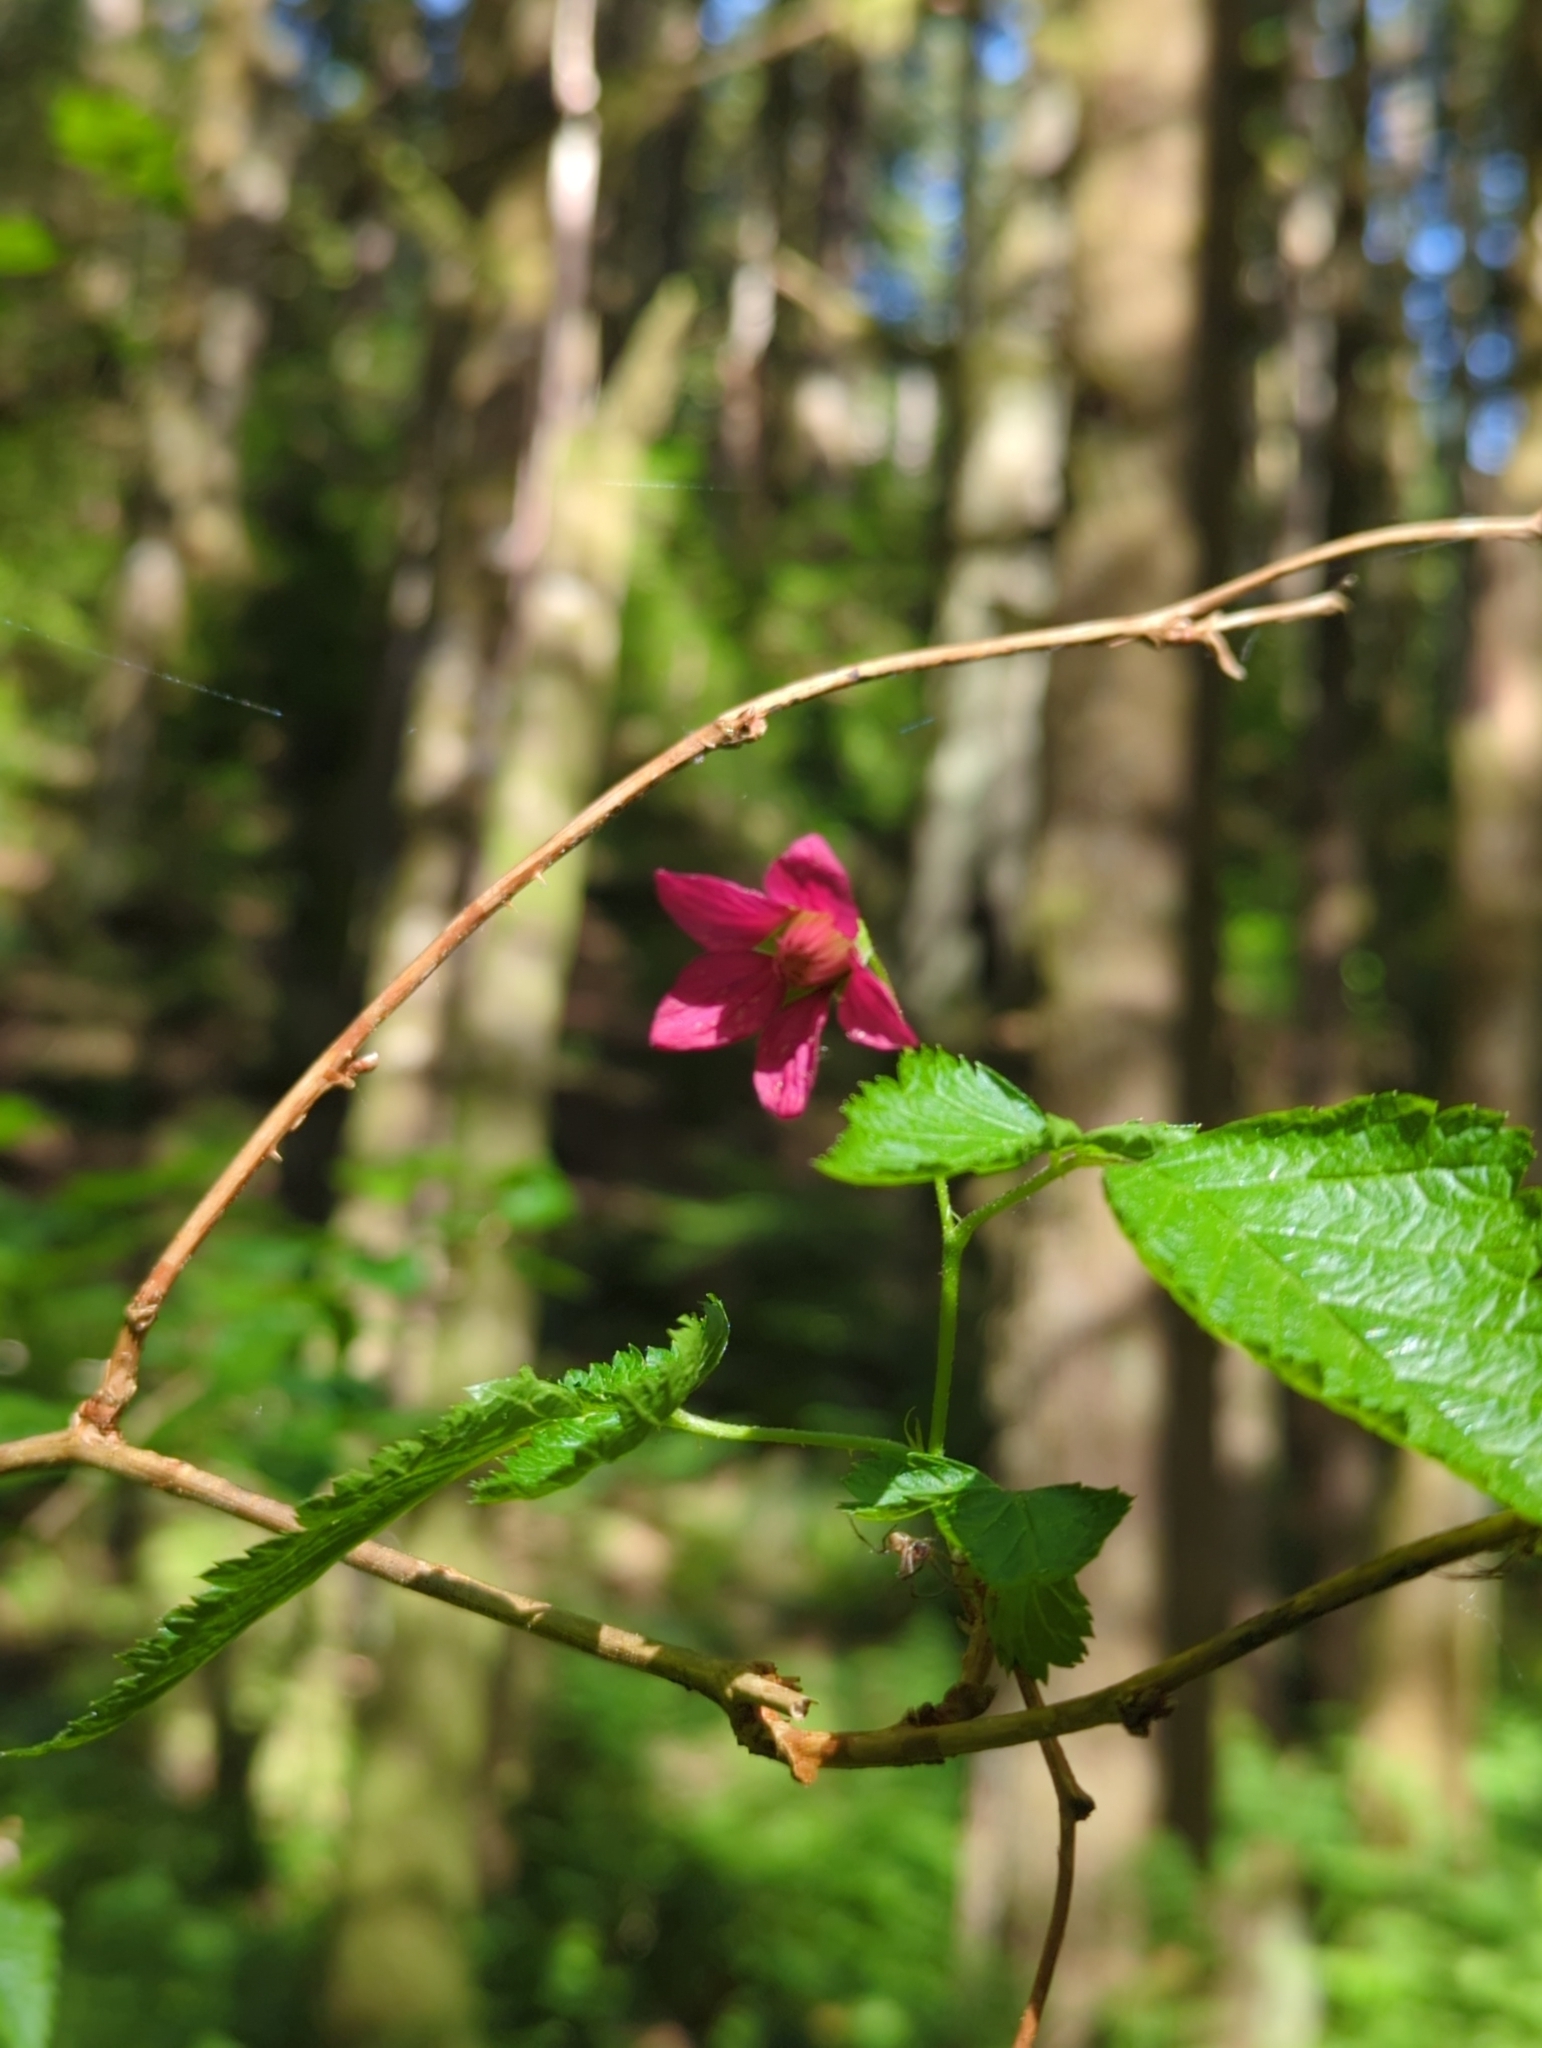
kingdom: Plantae
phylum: Tracheophyta
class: Magnoliopsida
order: Rosales
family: Rosaceae
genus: Rubus
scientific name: Rubus spectabilis
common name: Salmonberry
